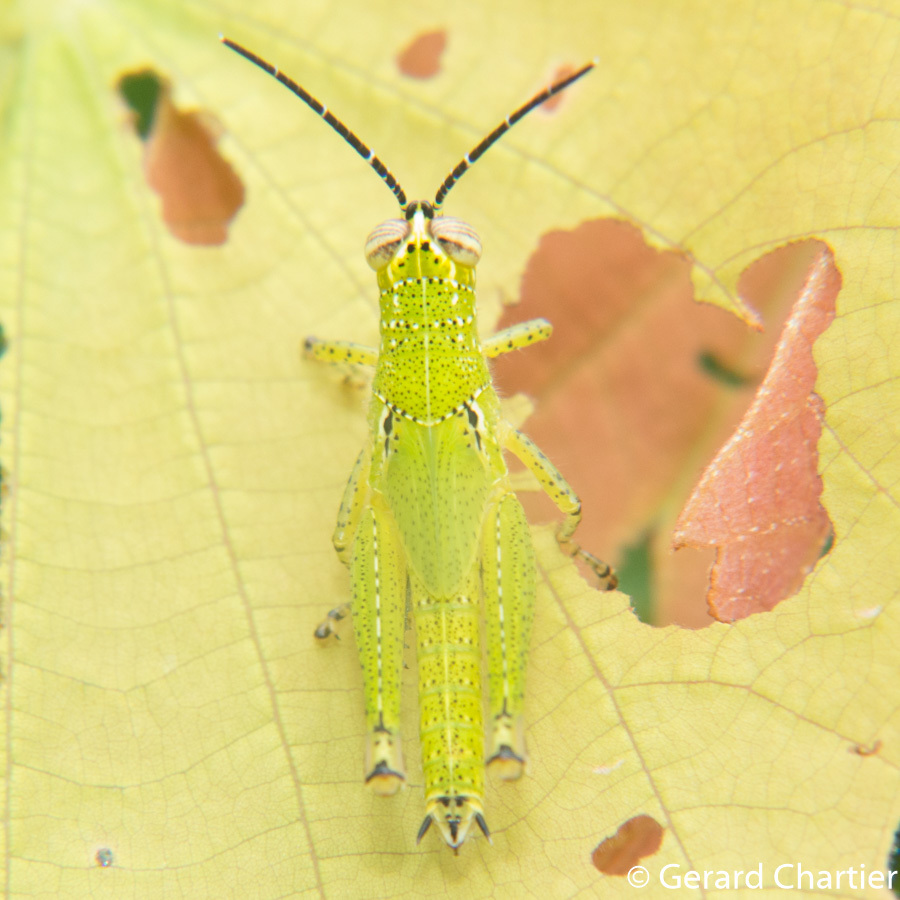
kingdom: Animalia
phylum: Arthropoda
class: Insecta
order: Orthoptera
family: Acrididae
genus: Xenocatantops
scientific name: Xenocatantops humile
